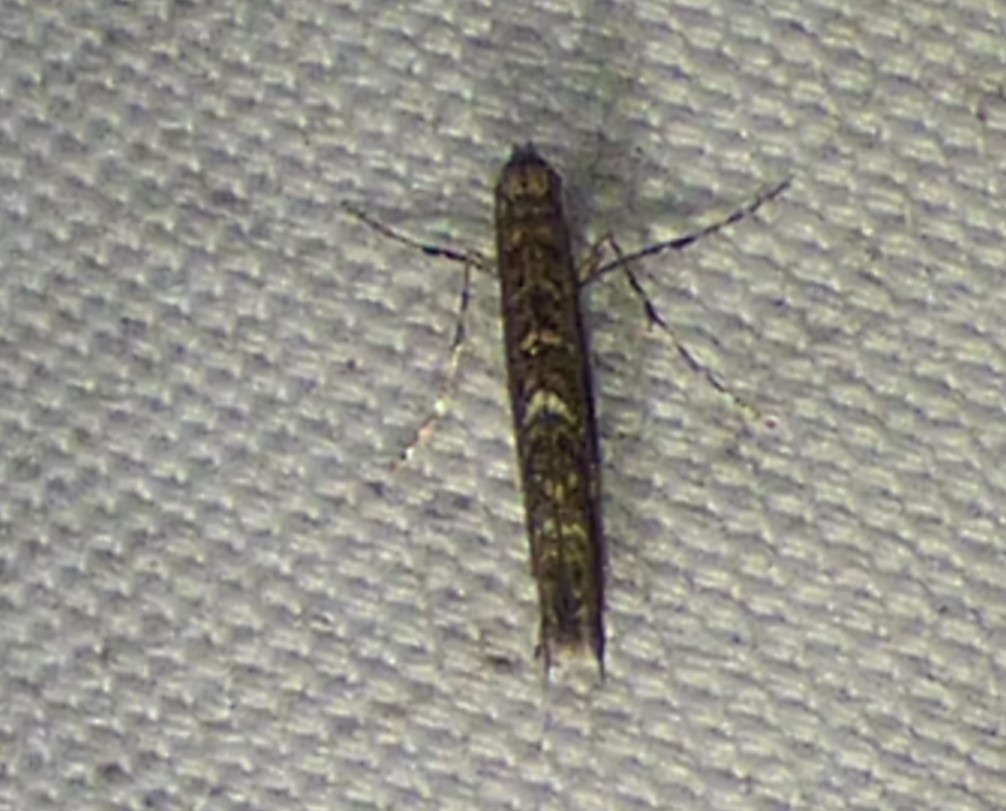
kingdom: Animalia
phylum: Arthropoda
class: Insecta
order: Lepidoptera
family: Gracillariidae
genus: Neurobathra
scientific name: Neurobathra strigifinitella
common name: Finite-channeled leafminer moth
